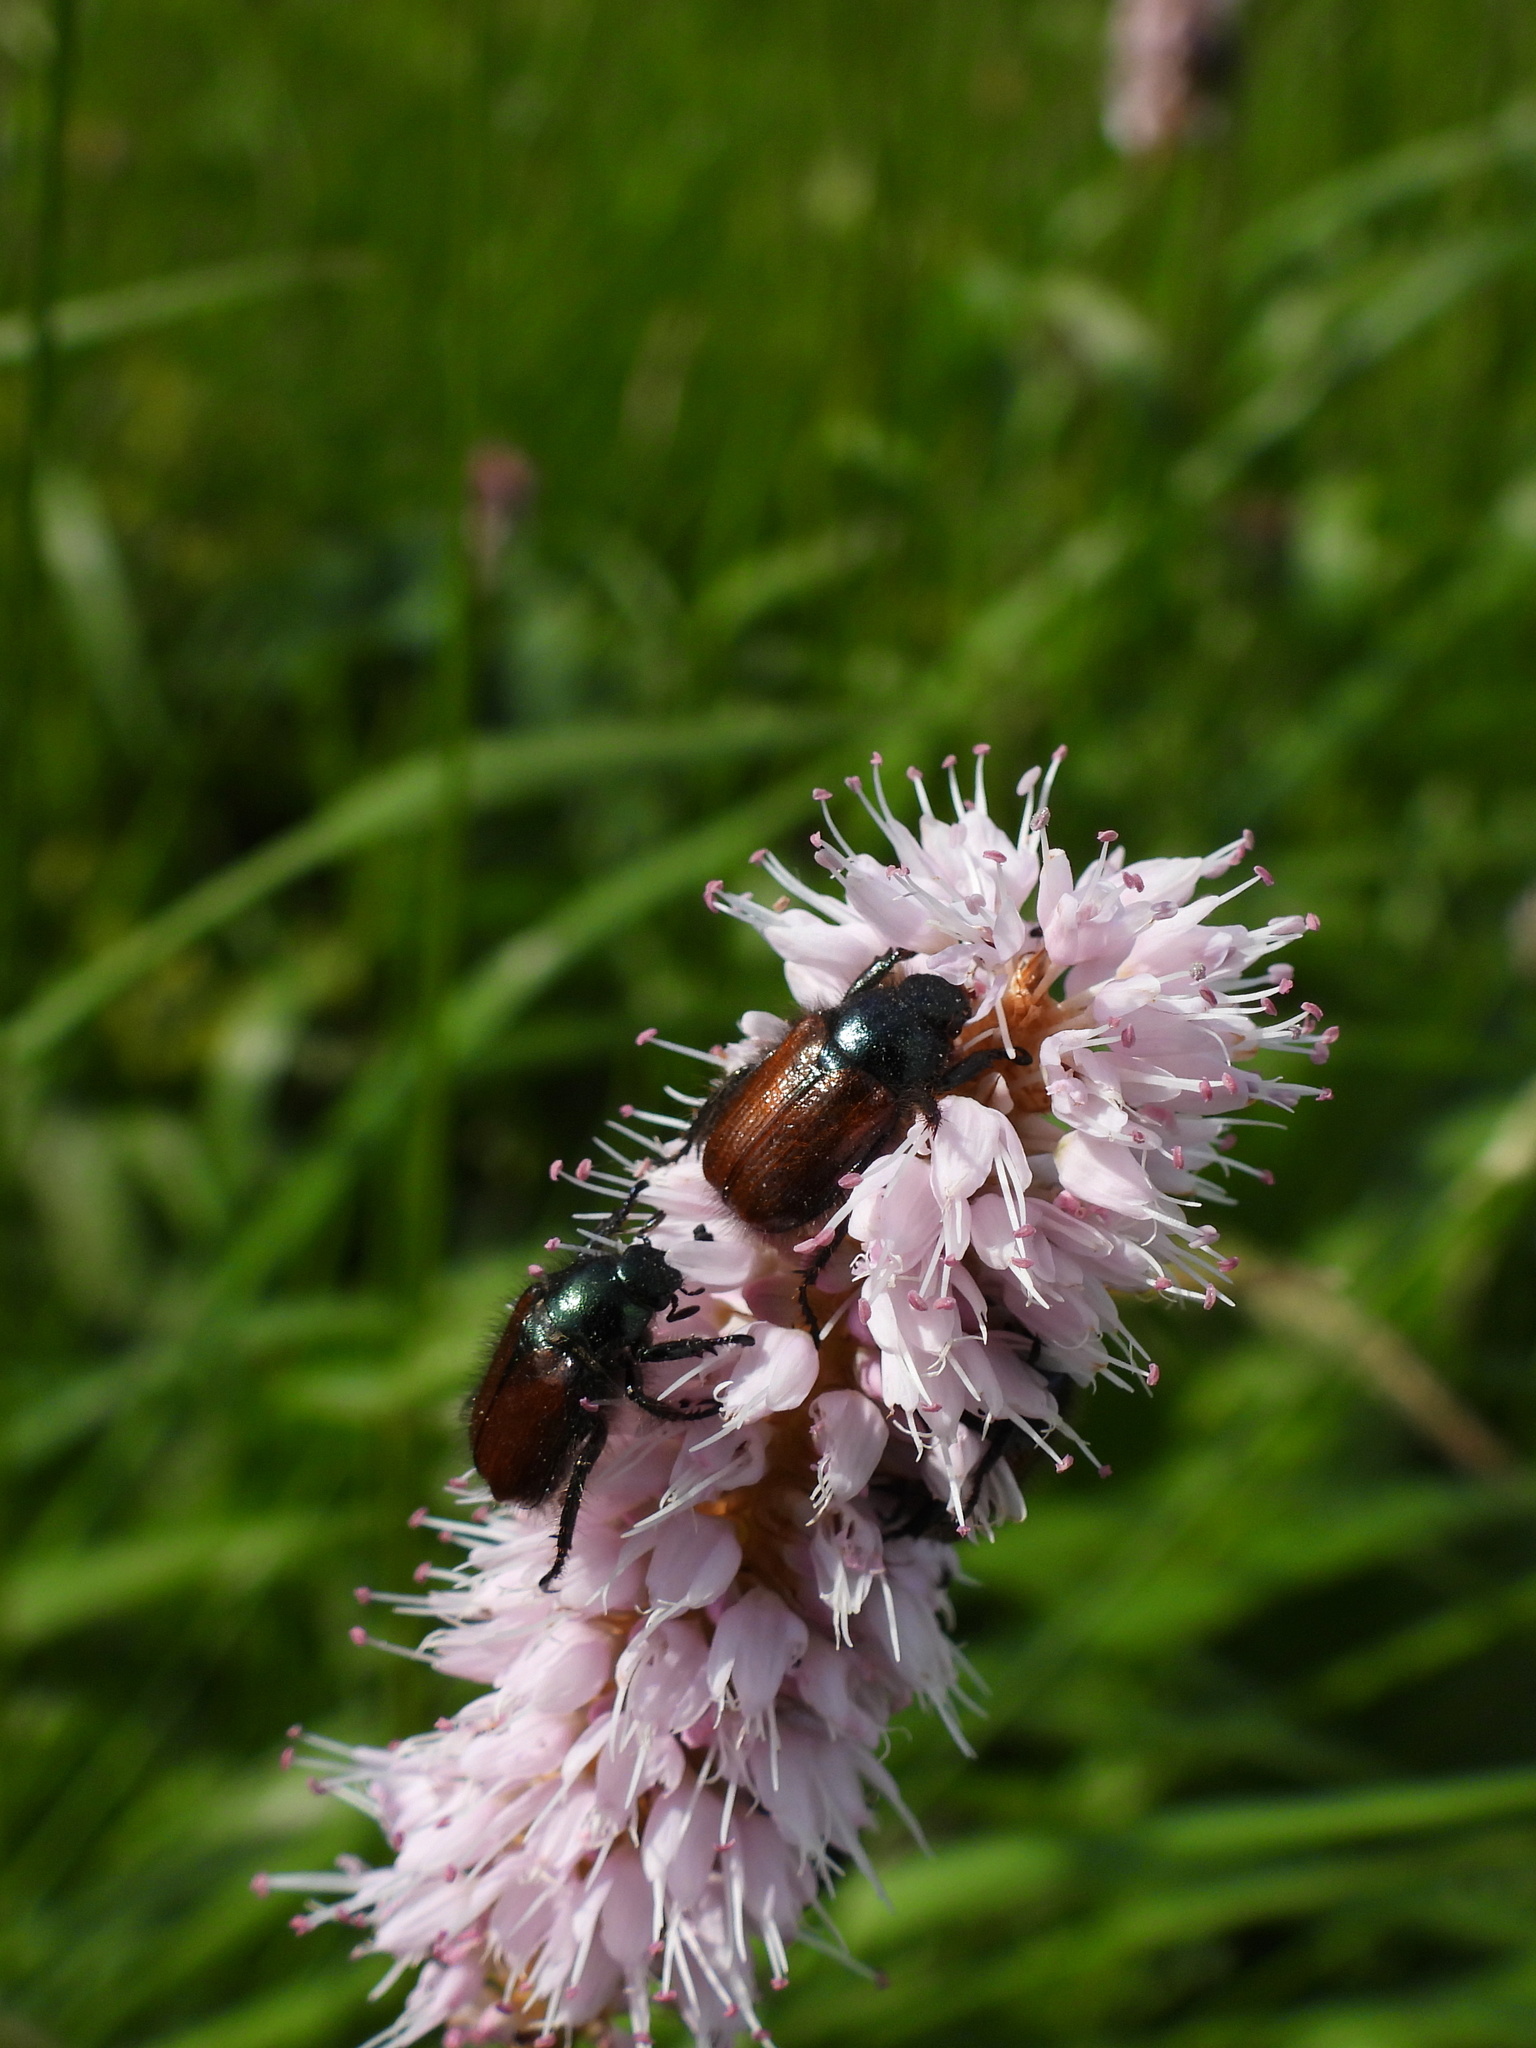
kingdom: Animalia
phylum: Arthropoda
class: Insecta
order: Coleoptera
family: Scarabaeidae
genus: Phyllopertha
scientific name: Phyllopertha horticola
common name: Garden chafer
